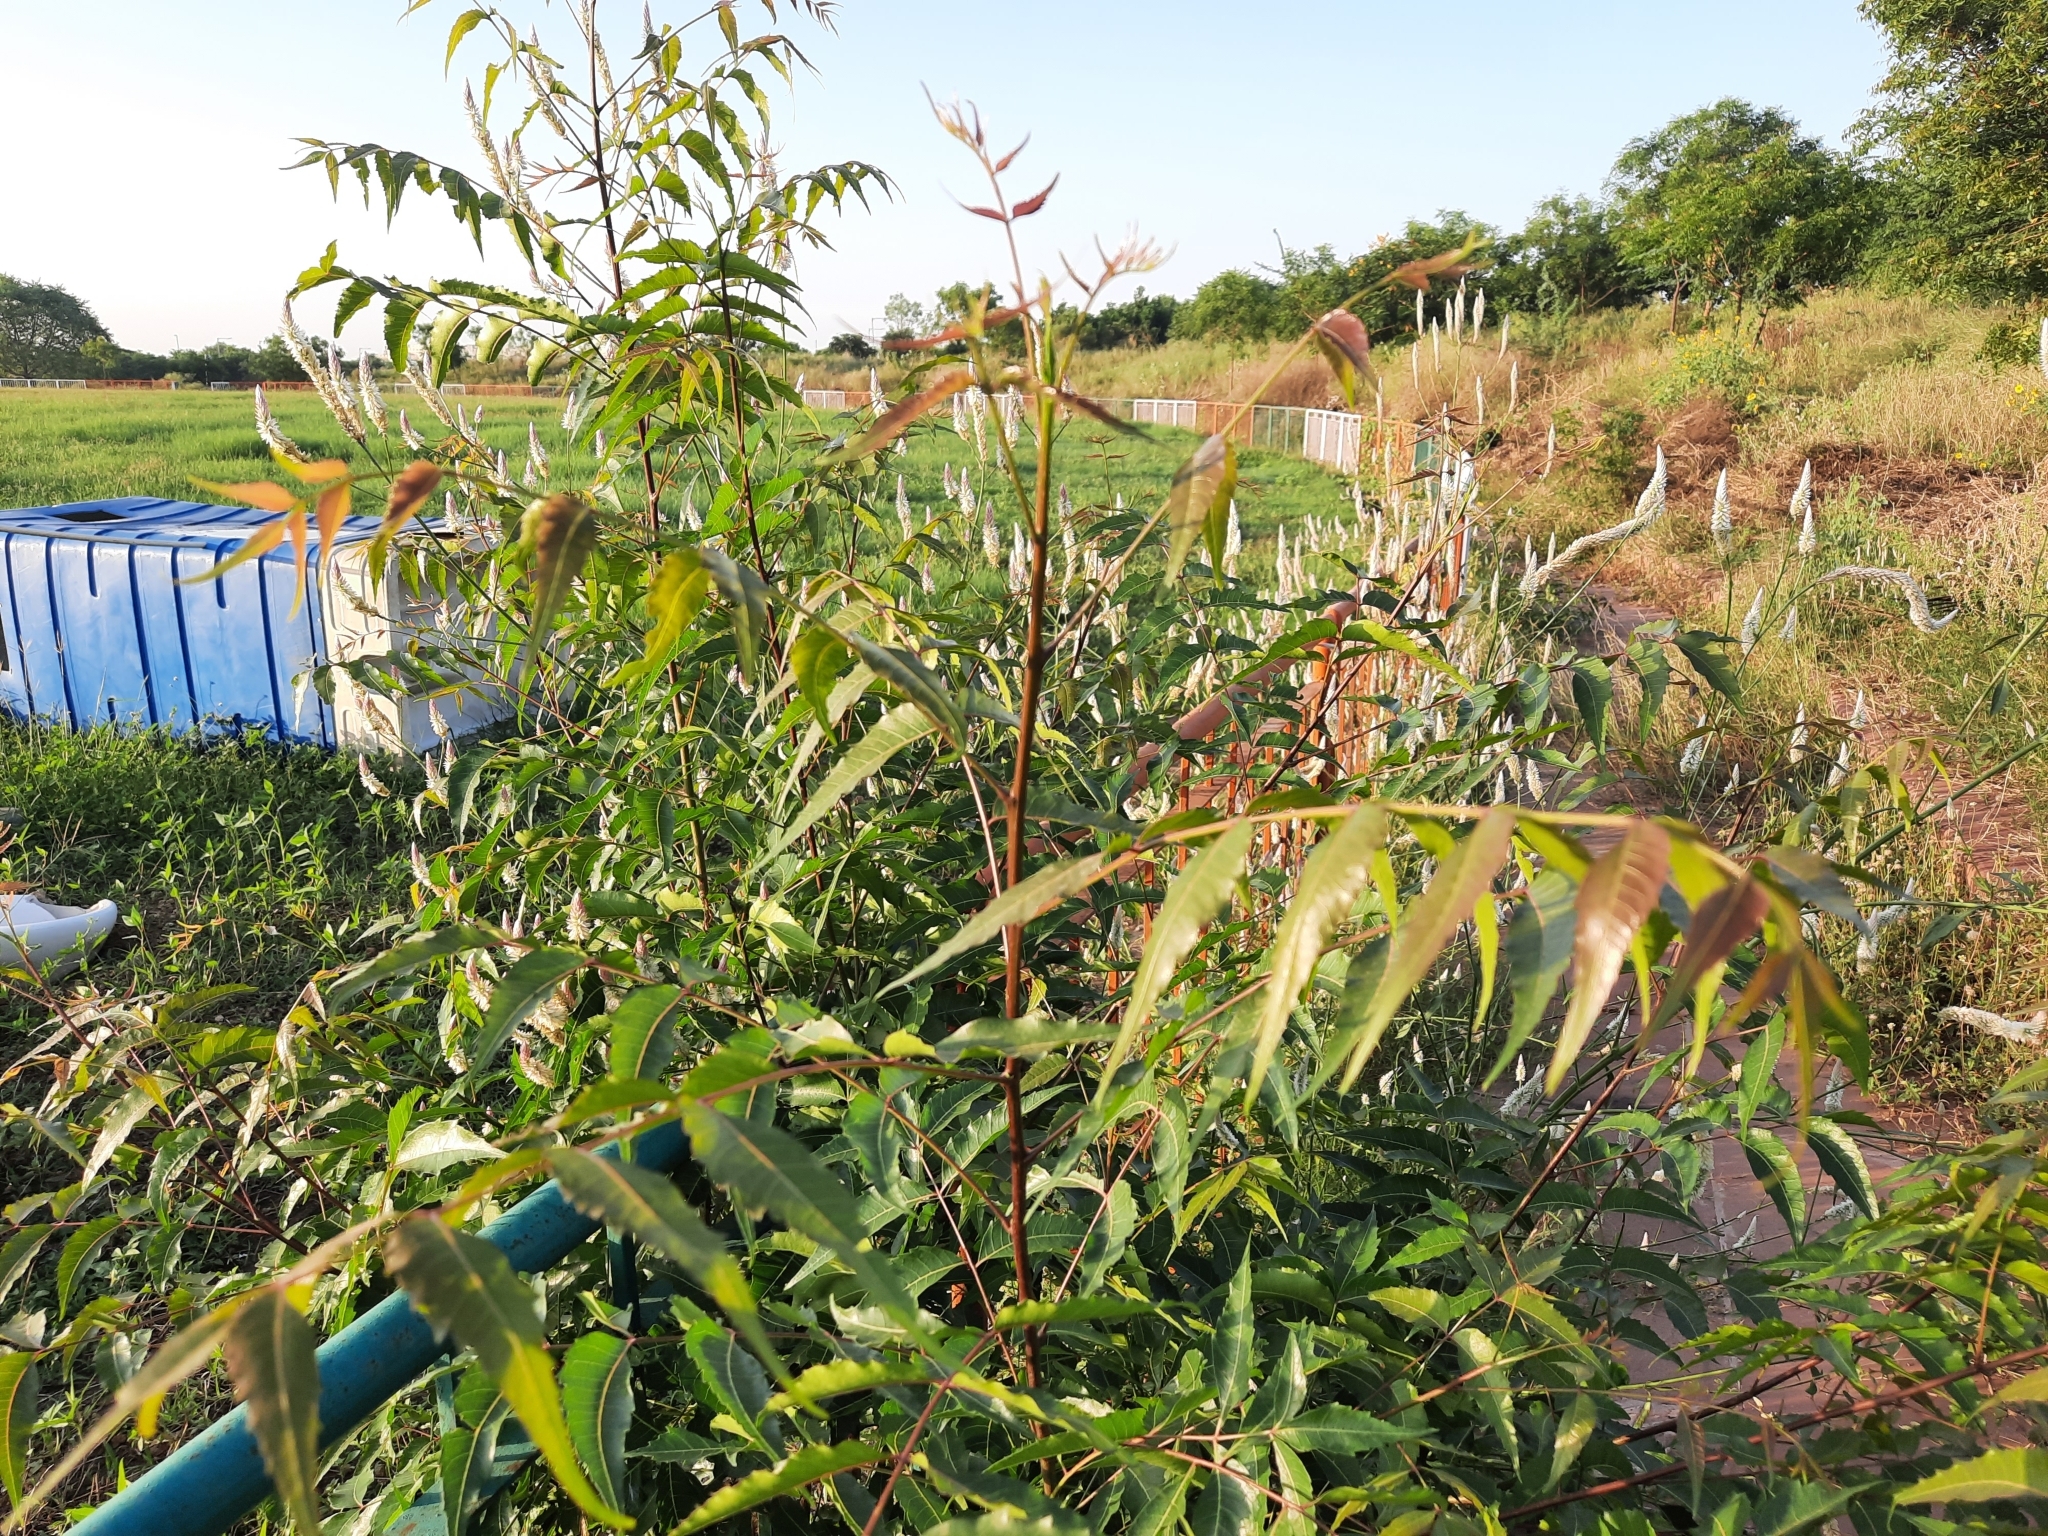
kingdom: Plantae
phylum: Tracheophyta
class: Magnoliopsida
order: Sapindales
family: Meliaceae
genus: Azadirachta
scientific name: Azadirachta indica
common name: Neem
